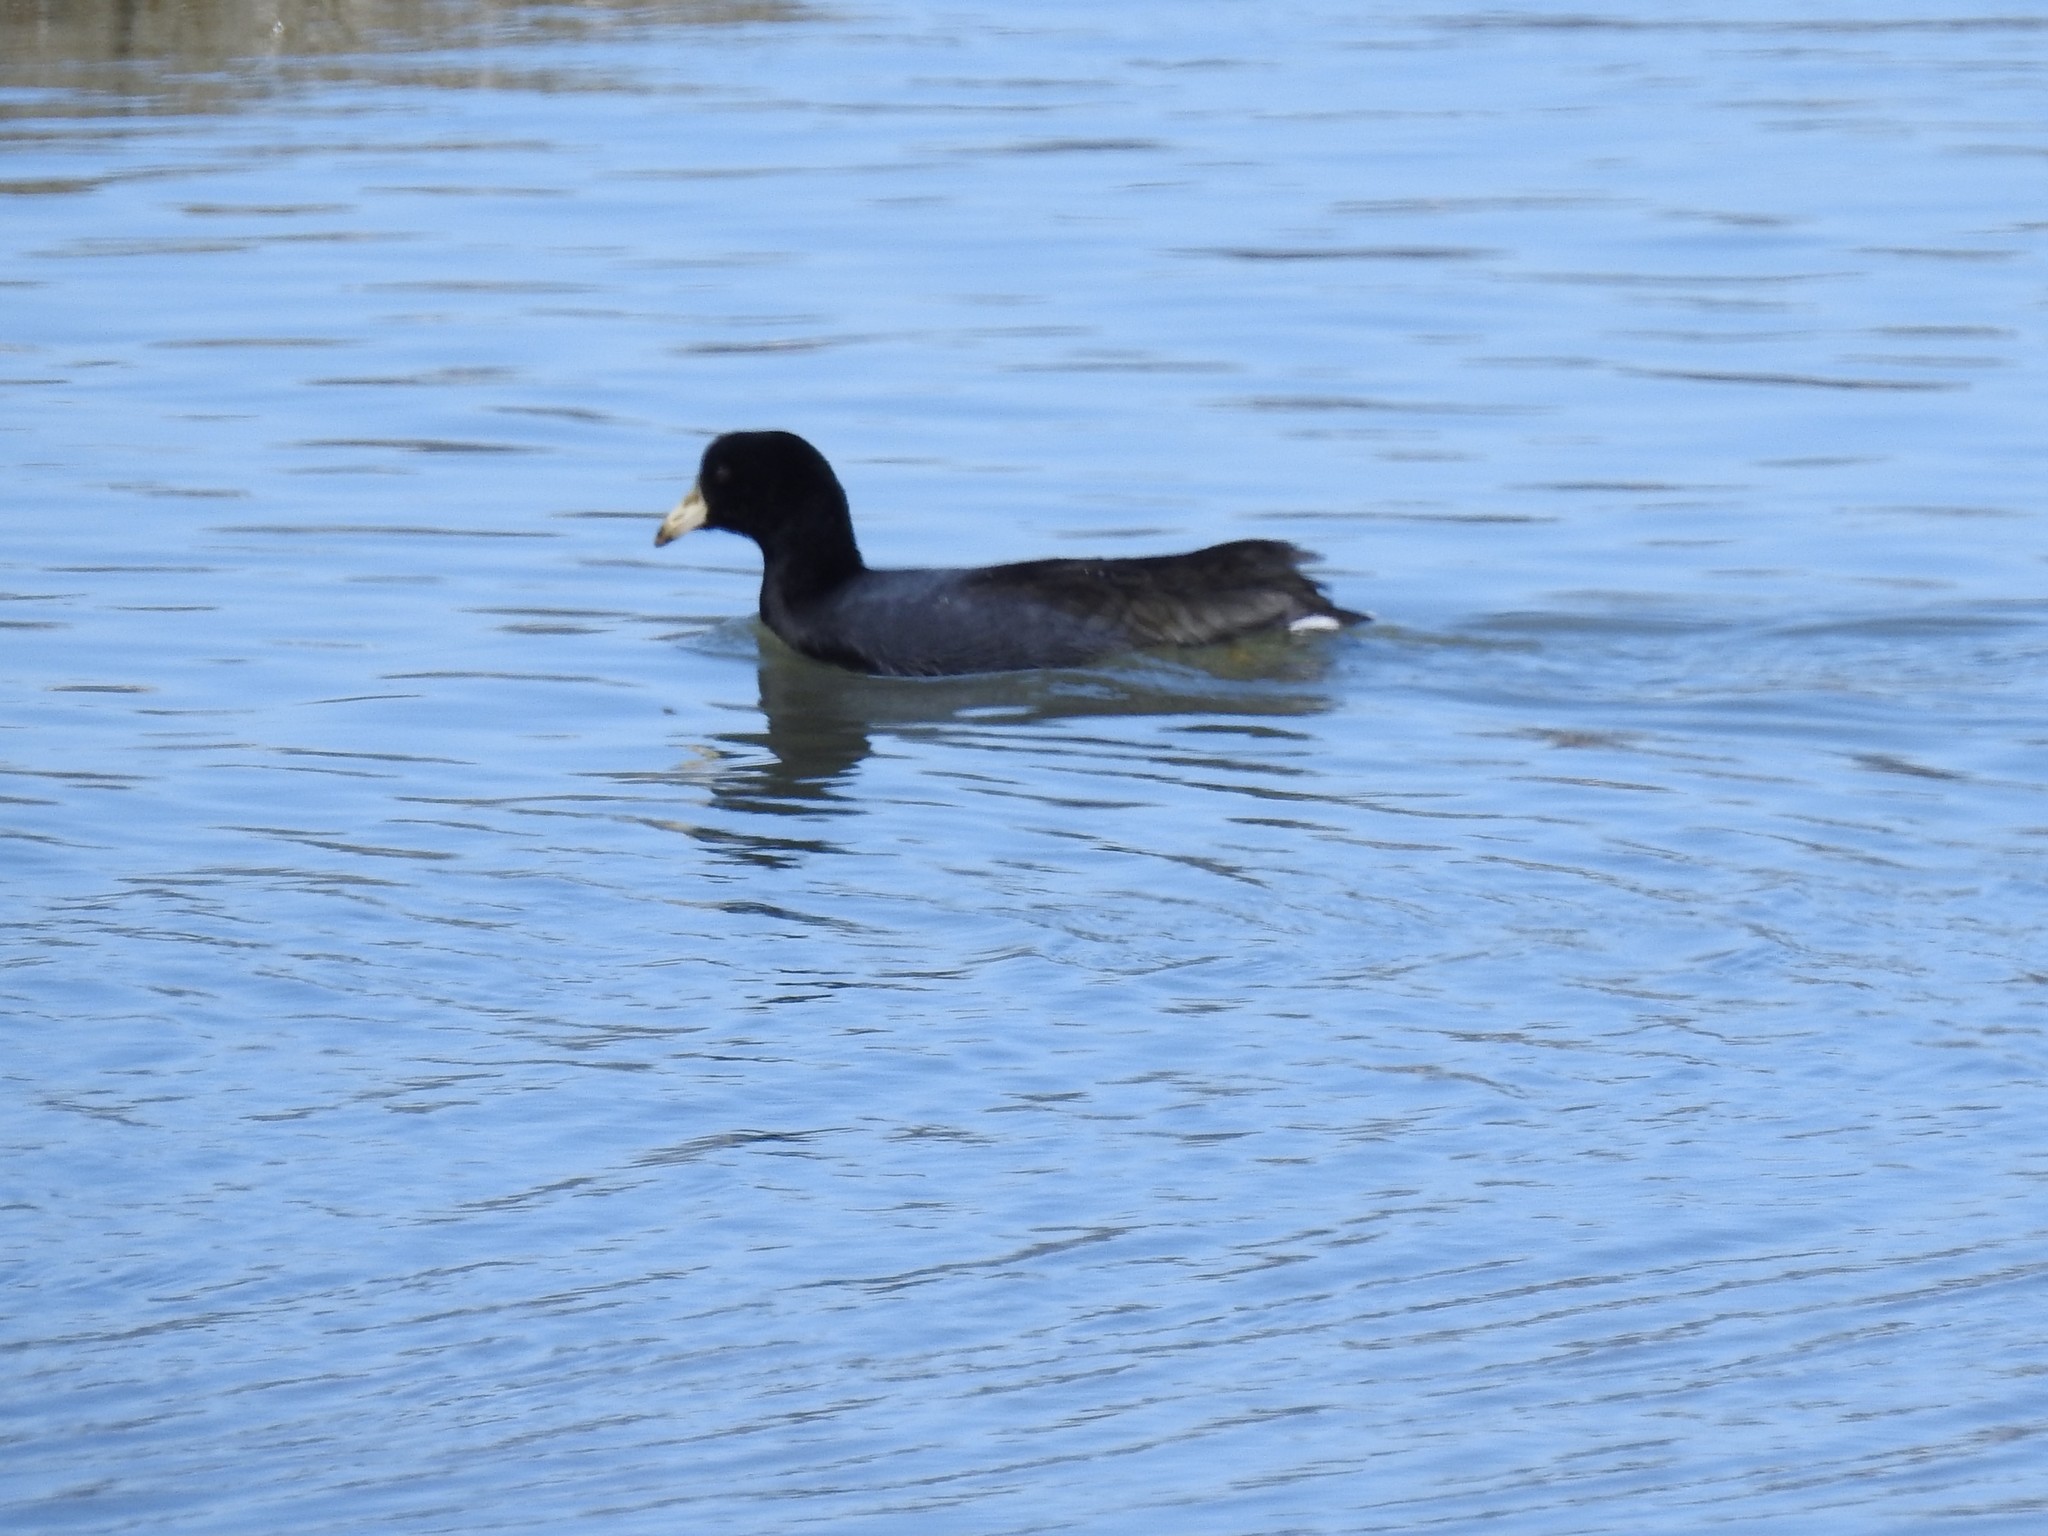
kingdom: Animalia
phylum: Chordata
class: Aves
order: Gruiformes
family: Rallidae
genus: Fulica
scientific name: Fulica americana
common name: American coot
